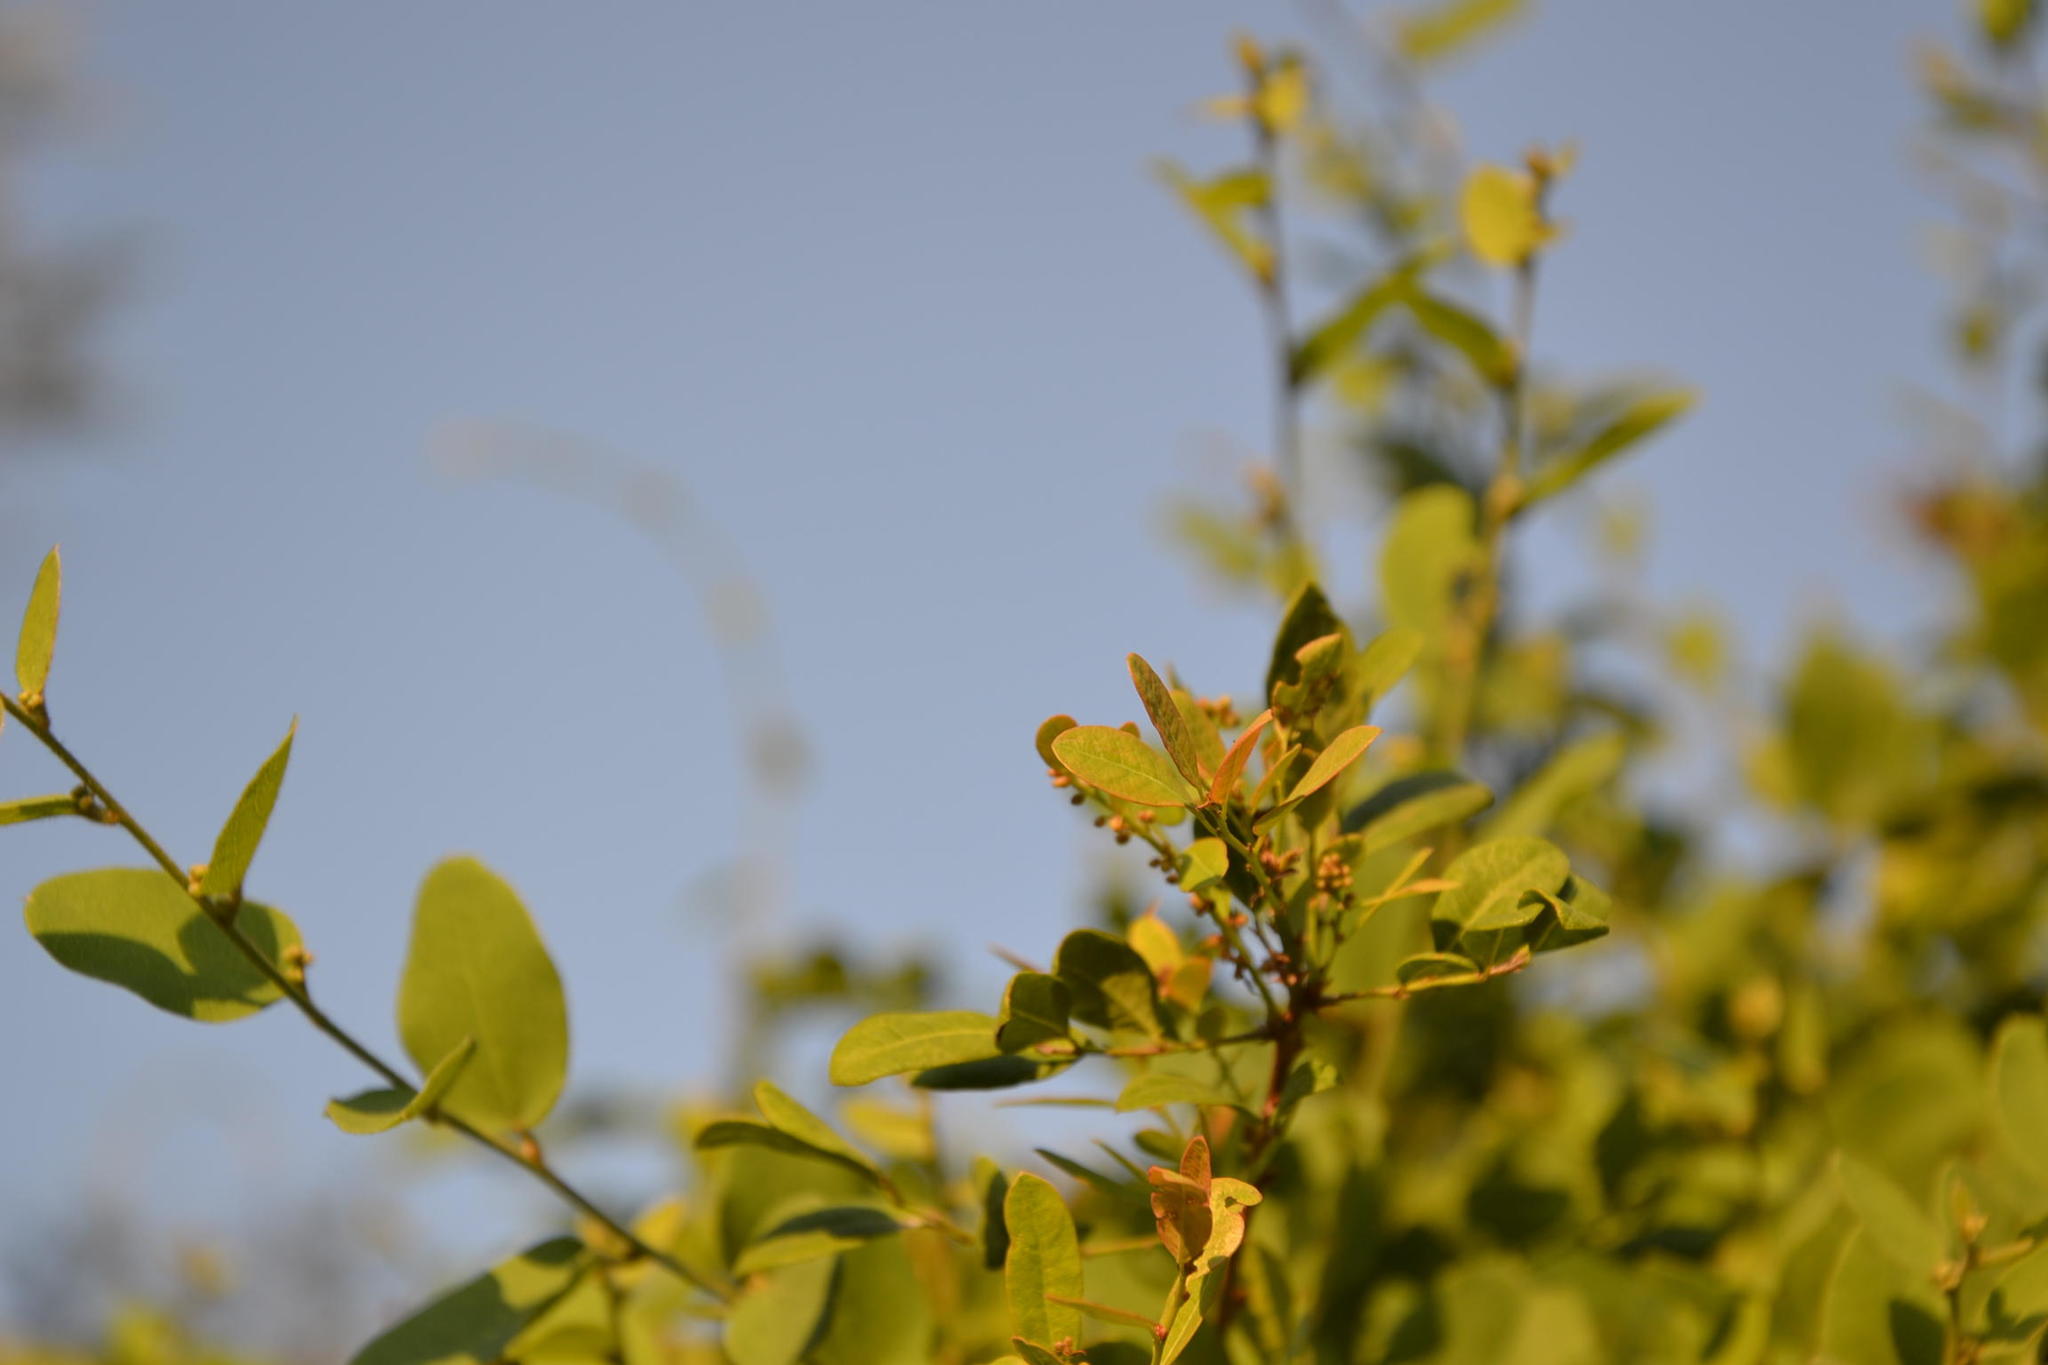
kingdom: Plantae
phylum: Tracheophyta
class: Magnoliopsida
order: Ranunculales
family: Menispermaceae
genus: Cocculus
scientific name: Cocculus hirsutus
